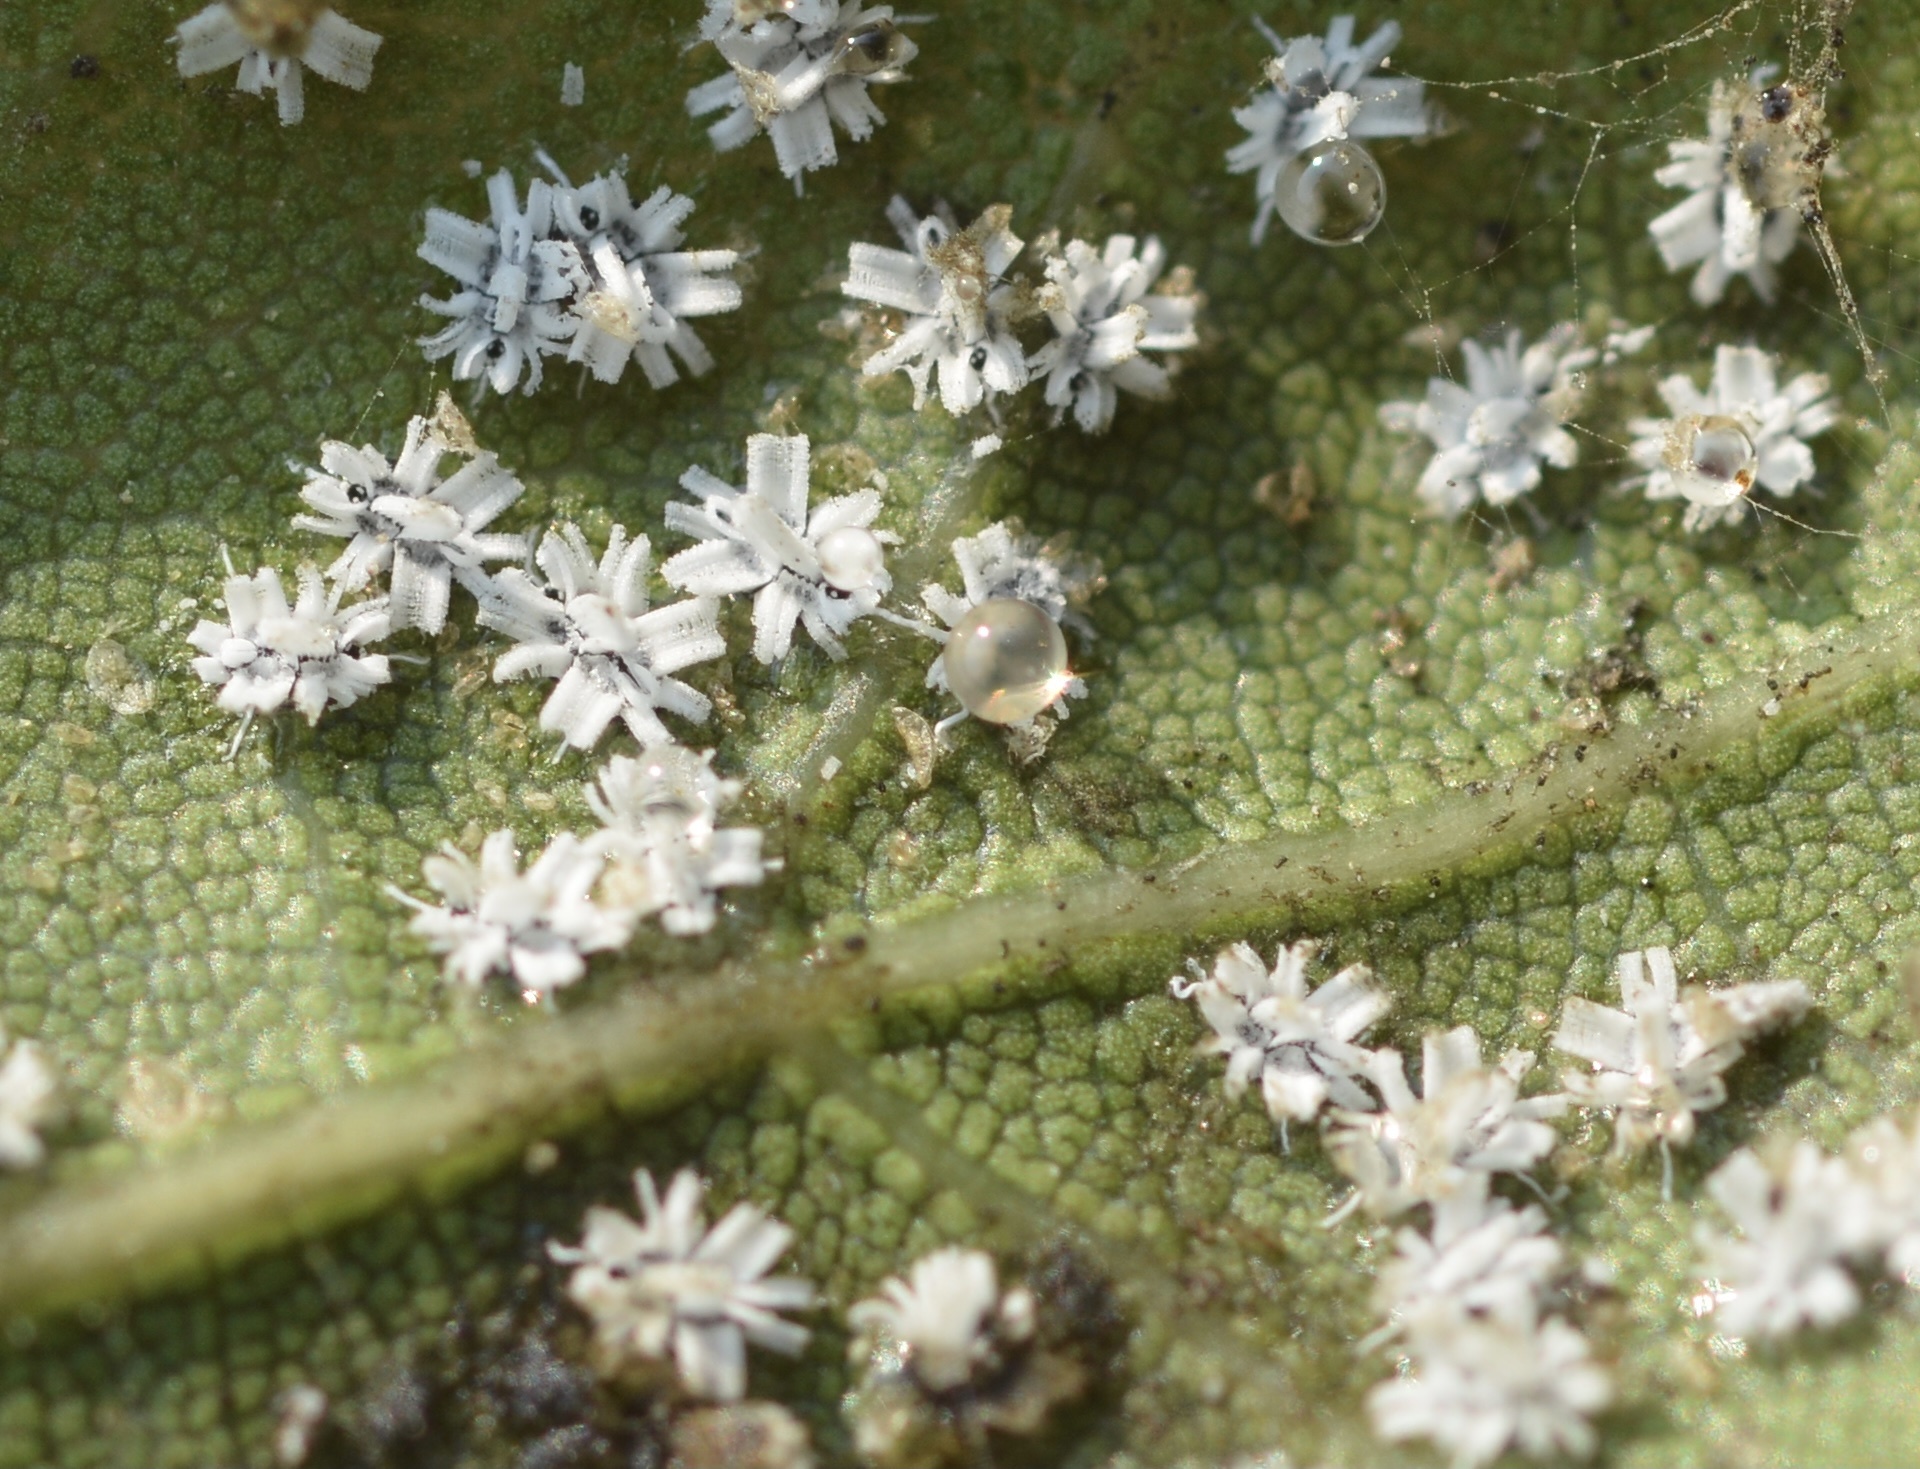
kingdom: Animalia
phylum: Arthropoda
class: Insecta
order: Hemiptera
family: Aleyrodidae
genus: Aleuroplatus
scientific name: Aleuroplatus coronata
